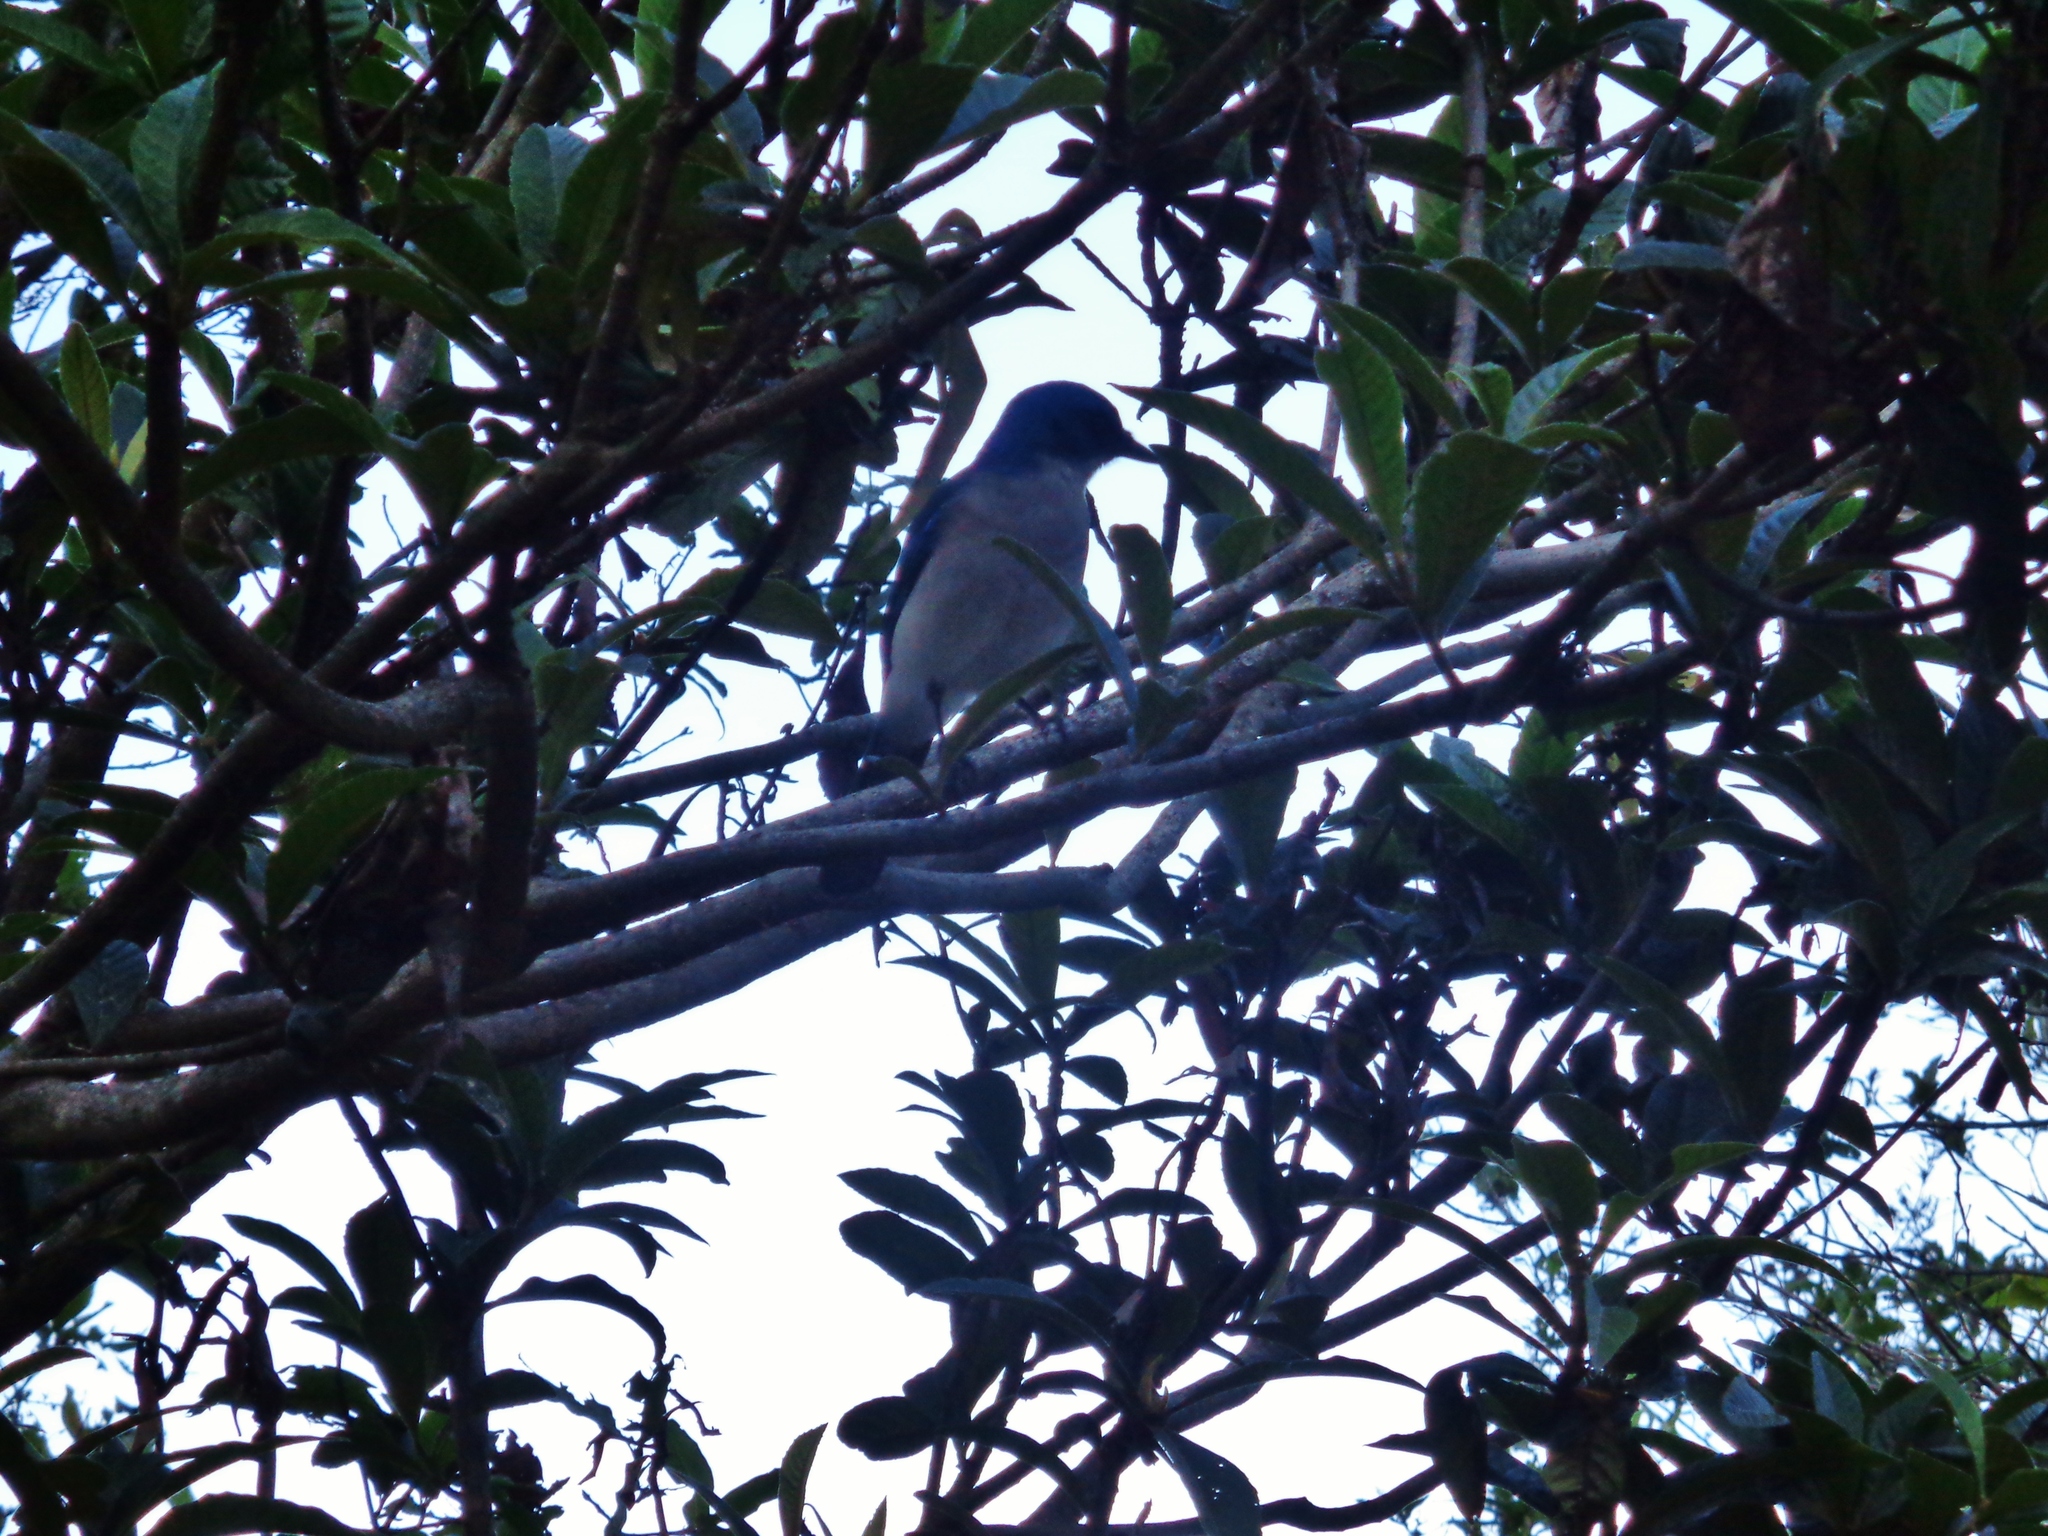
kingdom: Animalia
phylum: Chordata
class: Aves
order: Passeriformes
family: Corvidae
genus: Aphelocoma
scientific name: Aphelocoma wollweberi
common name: Mexican jay
